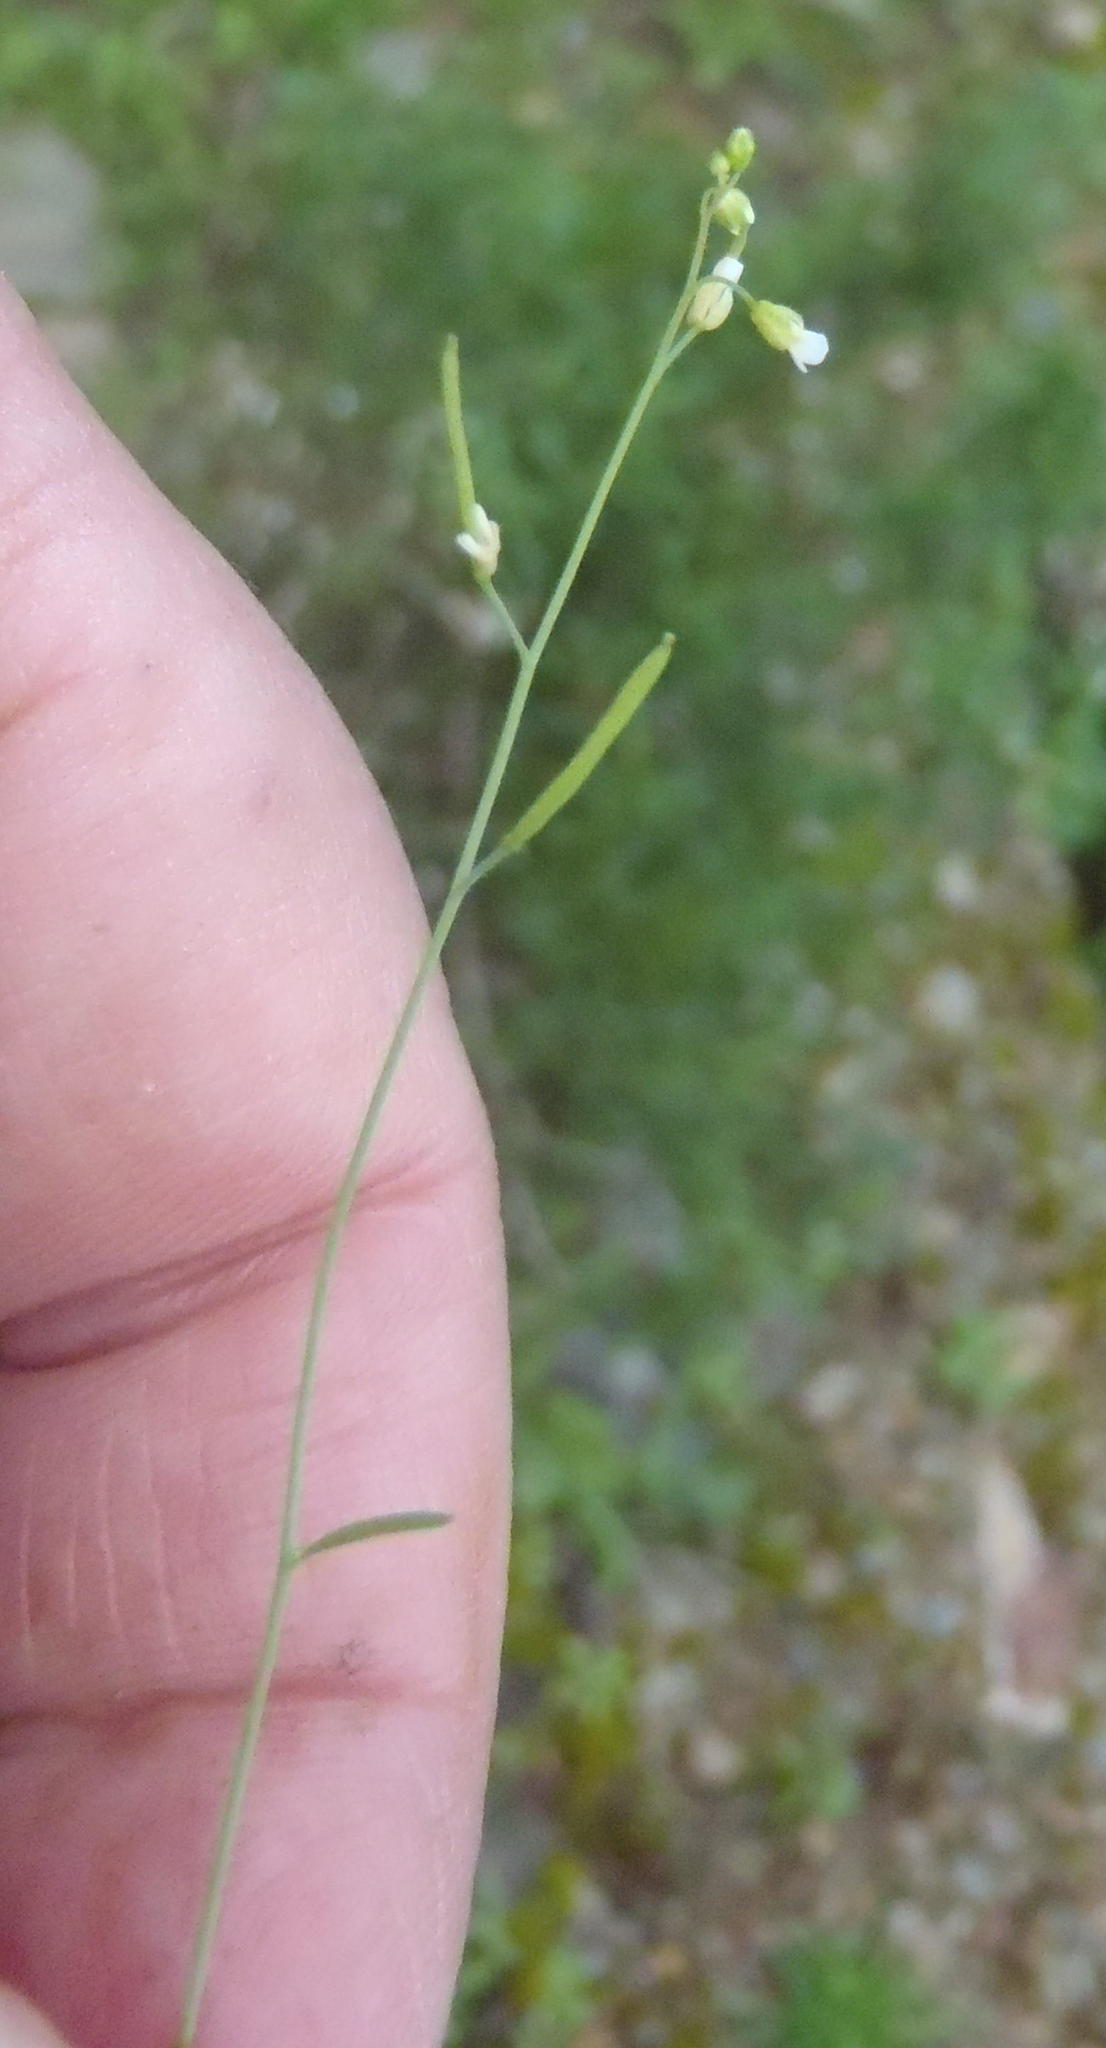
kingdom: Plantae
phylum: Tracheophyta
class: Magnoliopsida
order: Brassicales
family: Brassicaceae
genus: Arabidopsis
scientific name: Arabidopsis thaliana
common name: Thale cress
